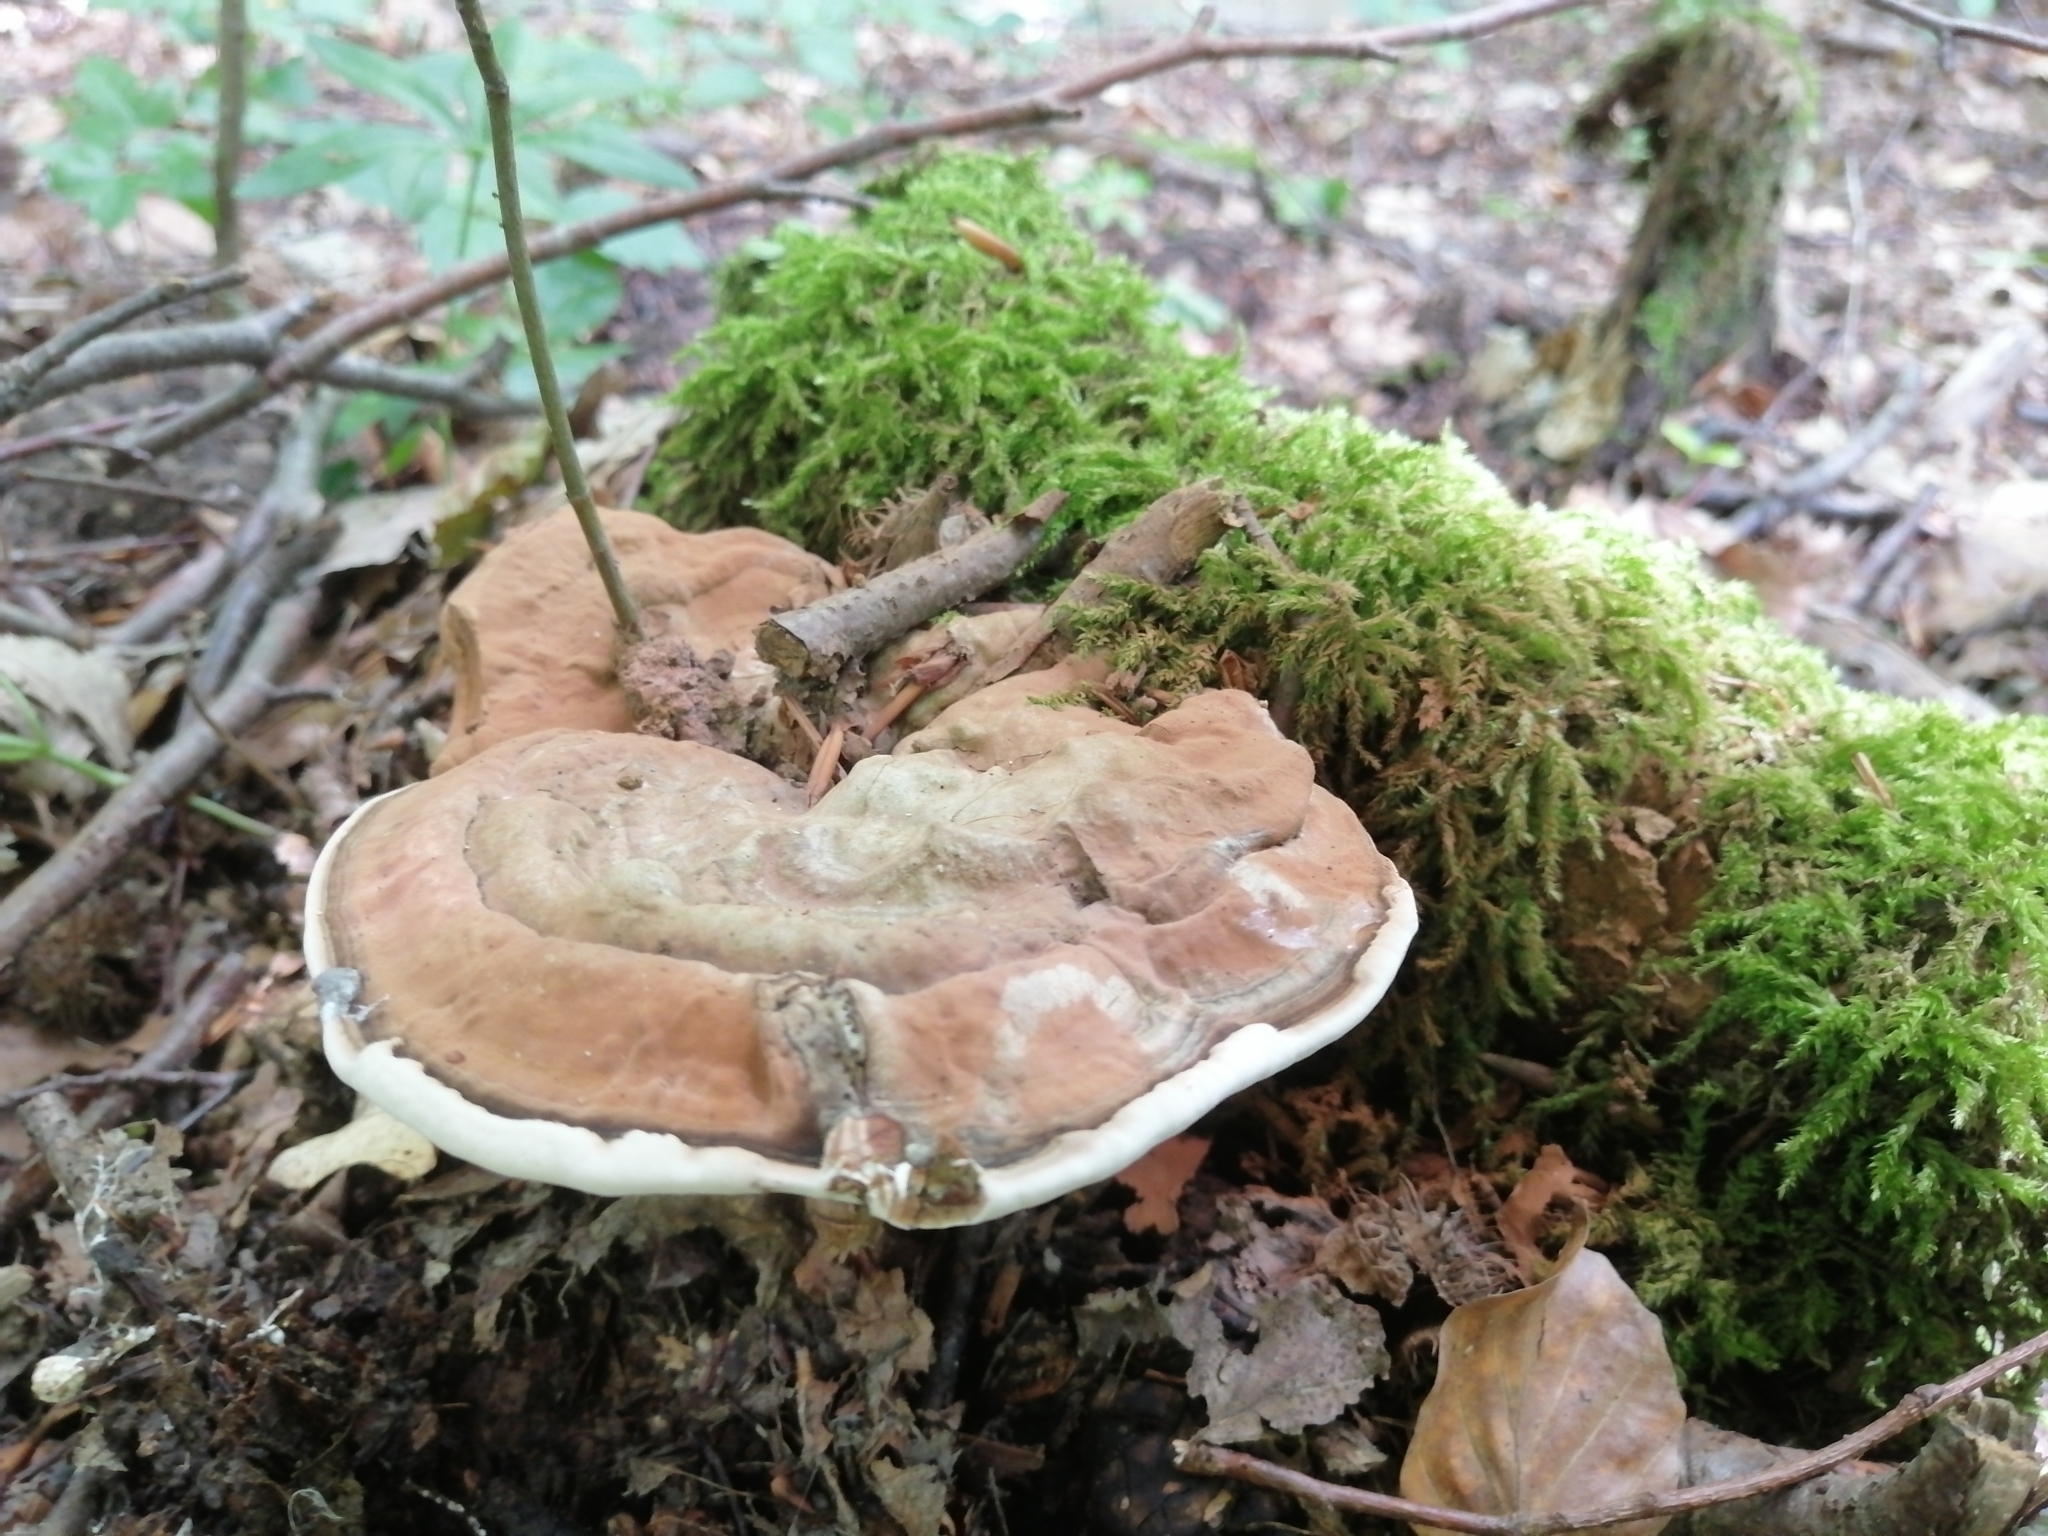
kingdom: Fungi
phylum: Basidiomycota
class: Agaricomycetes
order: Polyporales
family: Polyporaceae
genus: Ganoderma
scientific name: Ganoderma applanatum
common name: Artist's bracket
